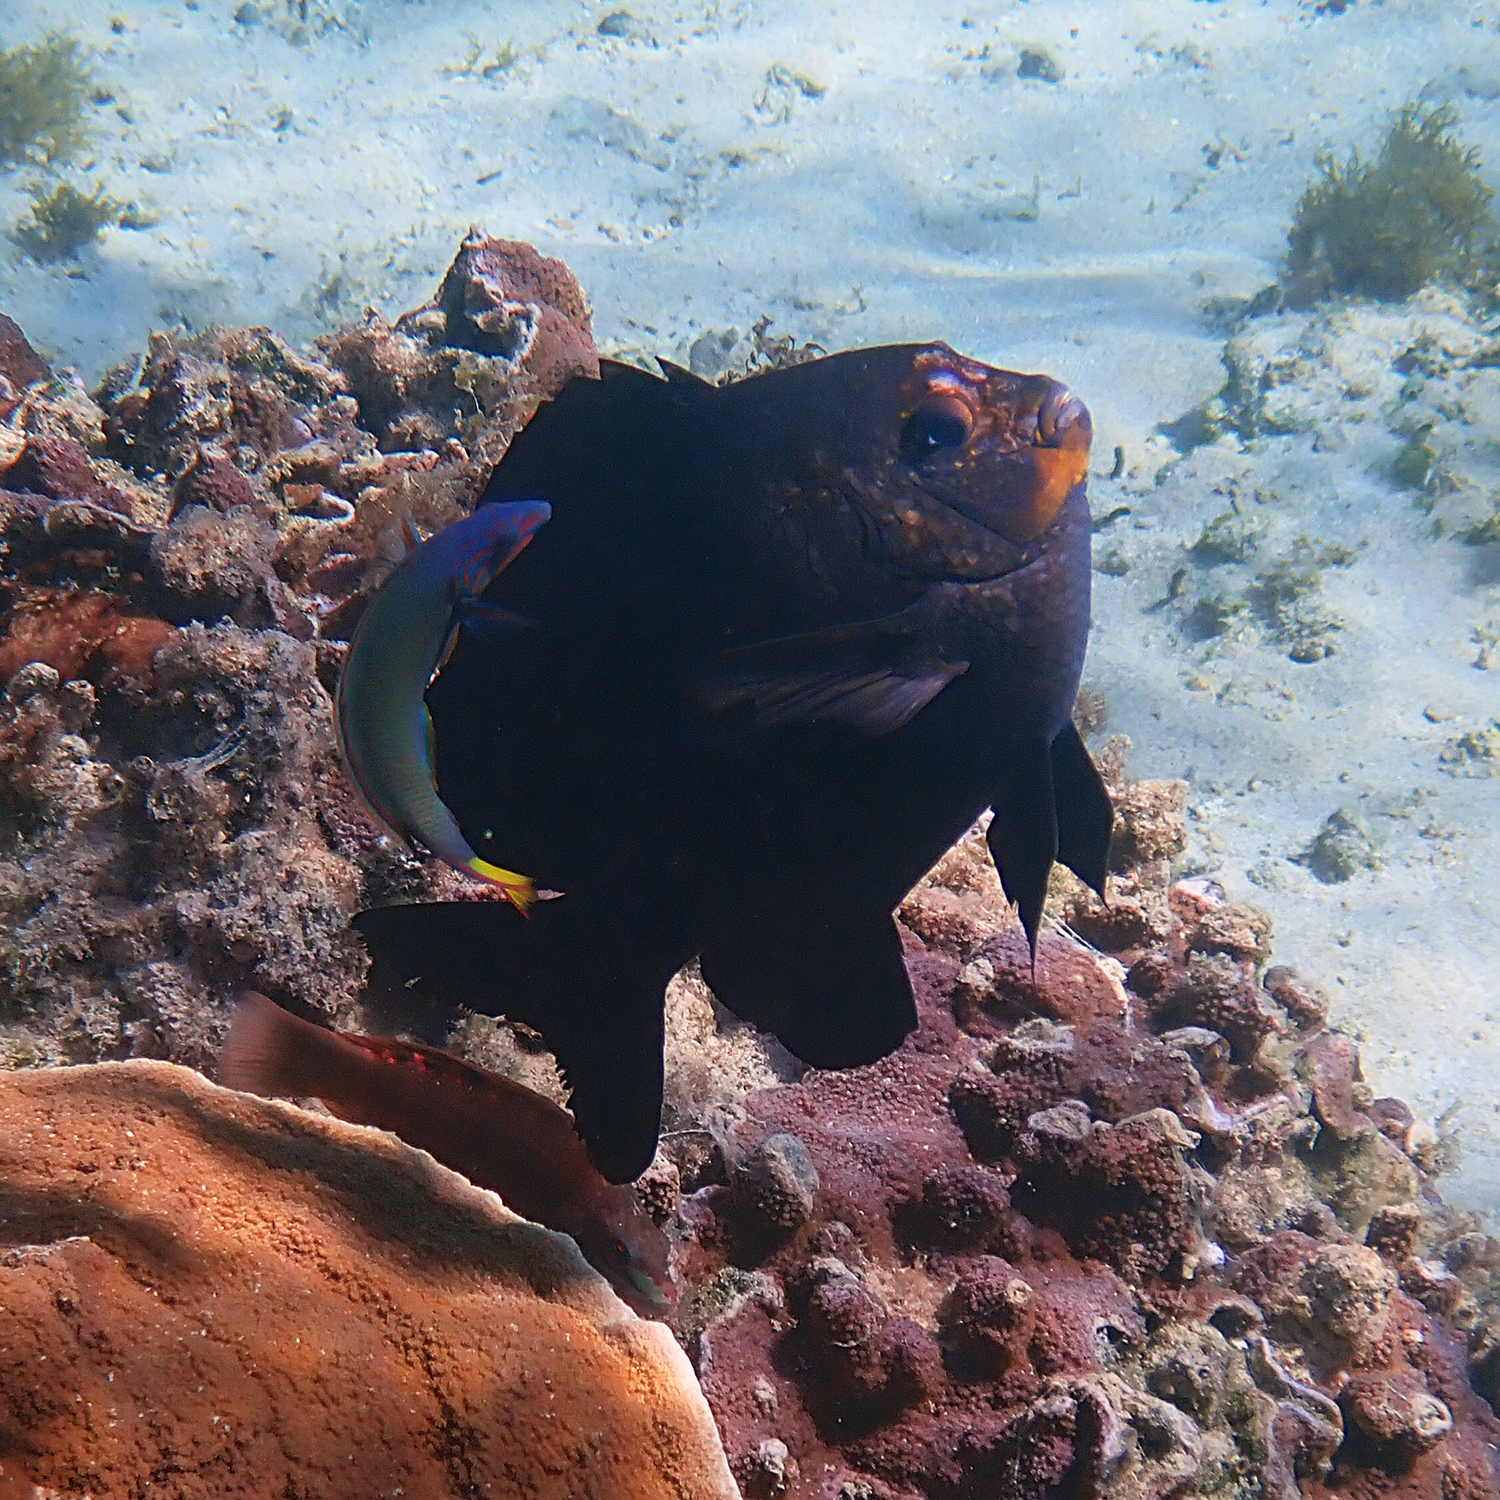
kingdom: Animalia
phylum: Chordata
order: Perciformes
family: Labridae
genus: Thalassoma
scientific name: Thalassoma lunare
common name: Blue wrasse
